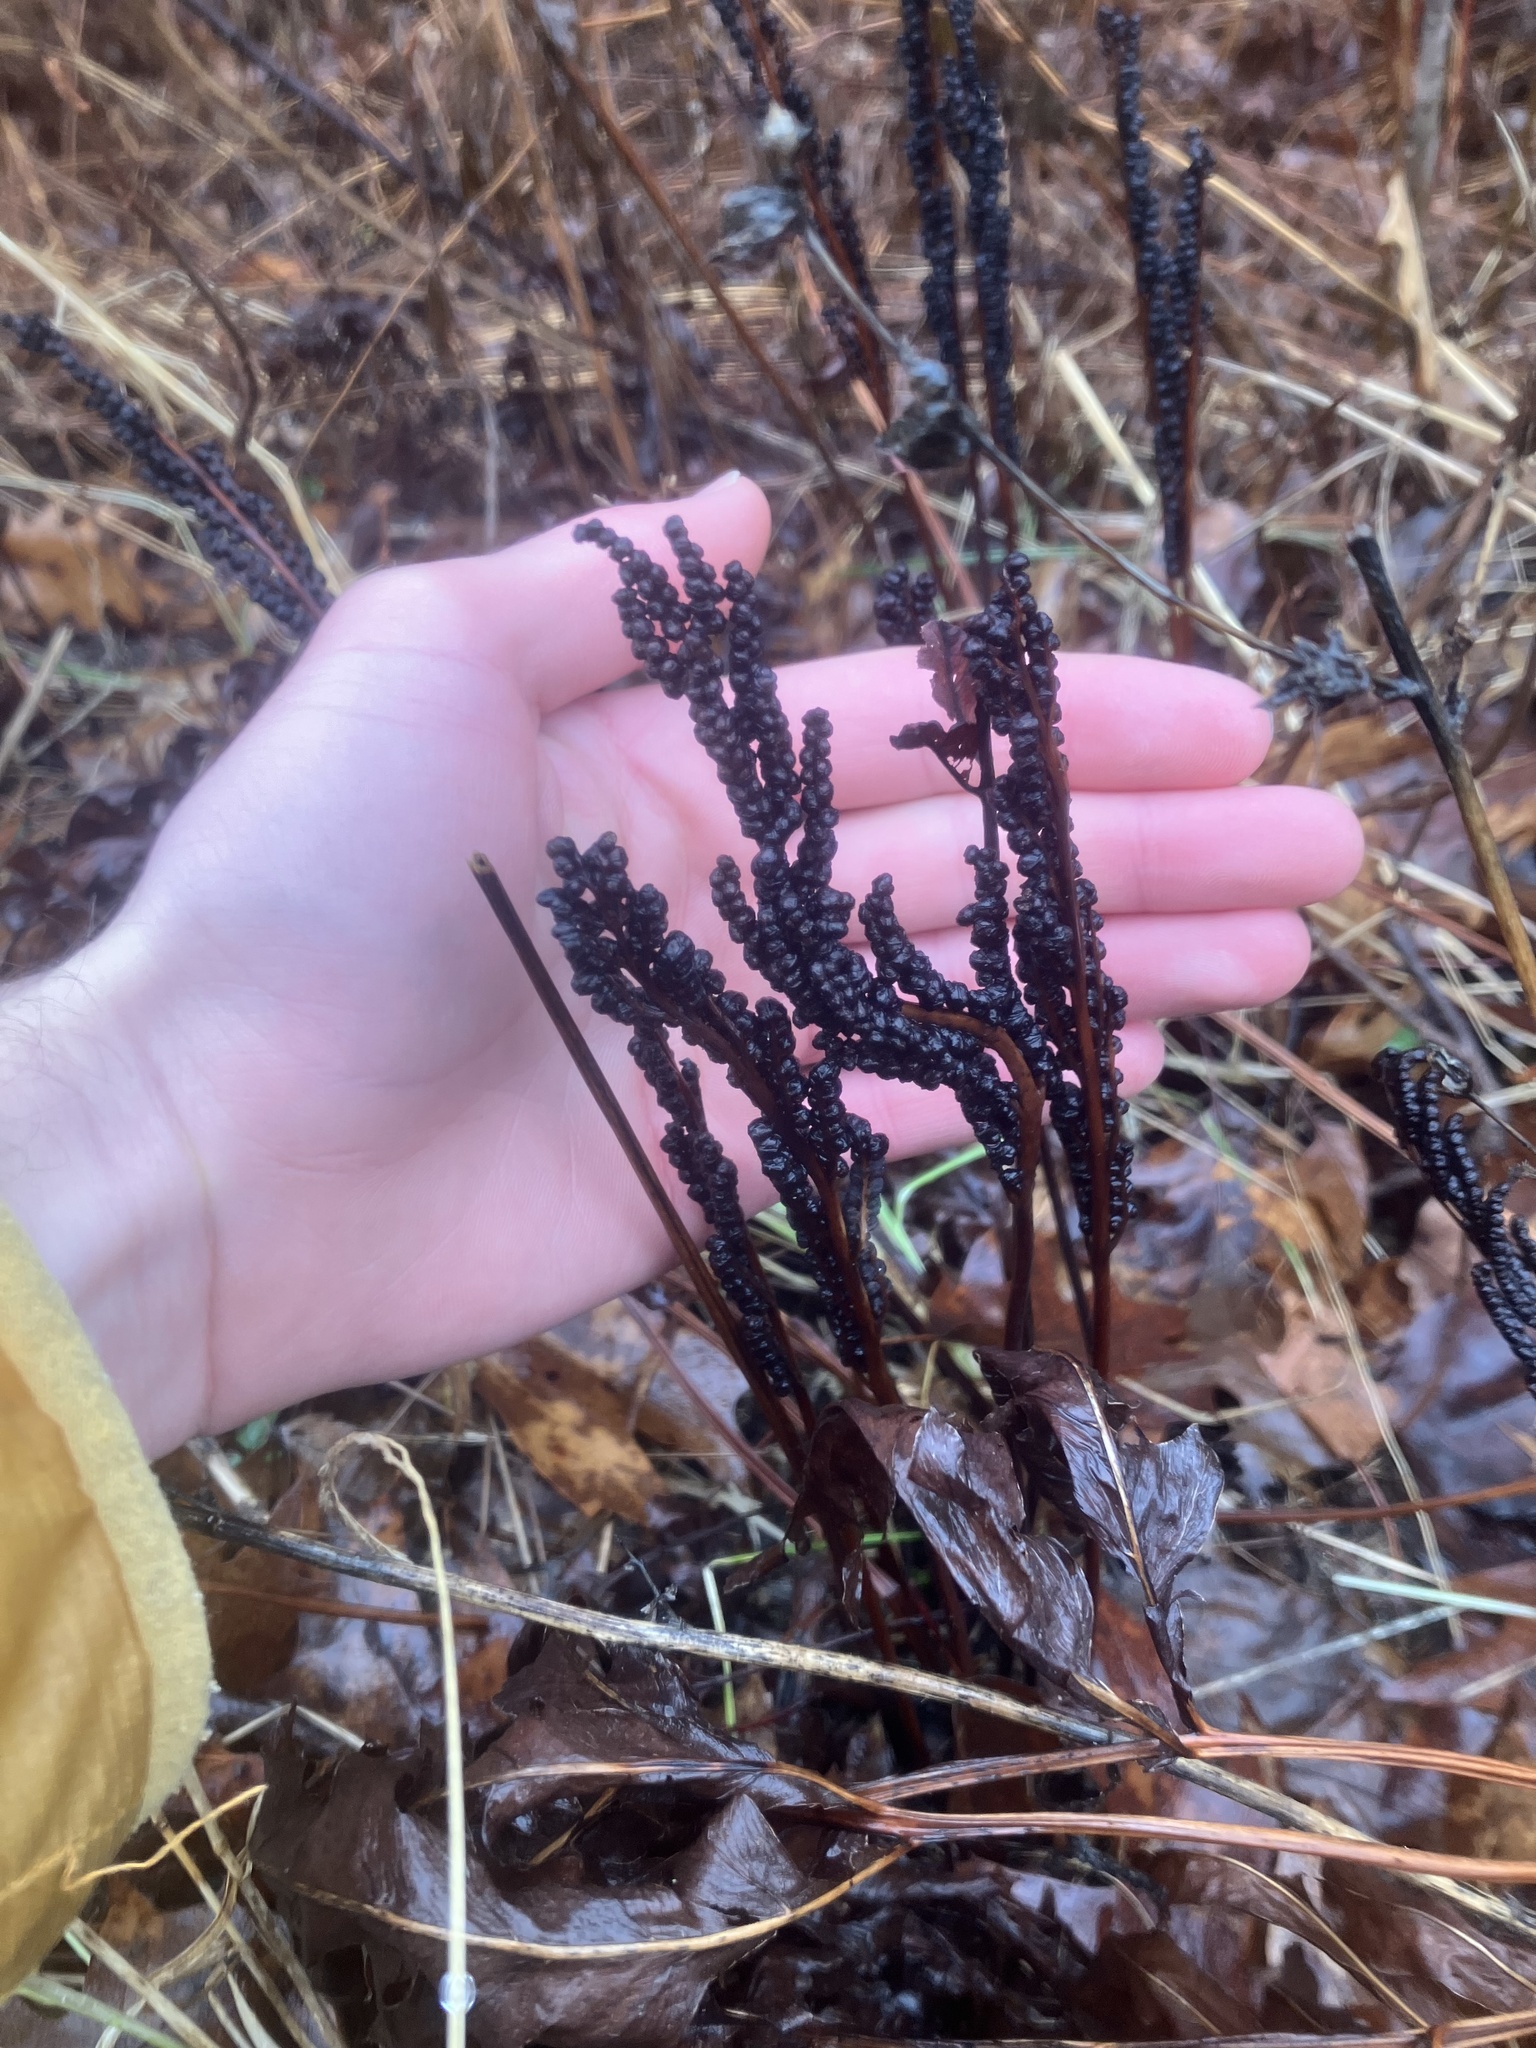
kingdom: Plantae
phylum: Tracheophyta
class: Polypodiopsida
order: Polypodiales
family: Onocleaceae
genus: Onoclea
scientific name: Onoclea sensibilis
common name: Sensitive fern
